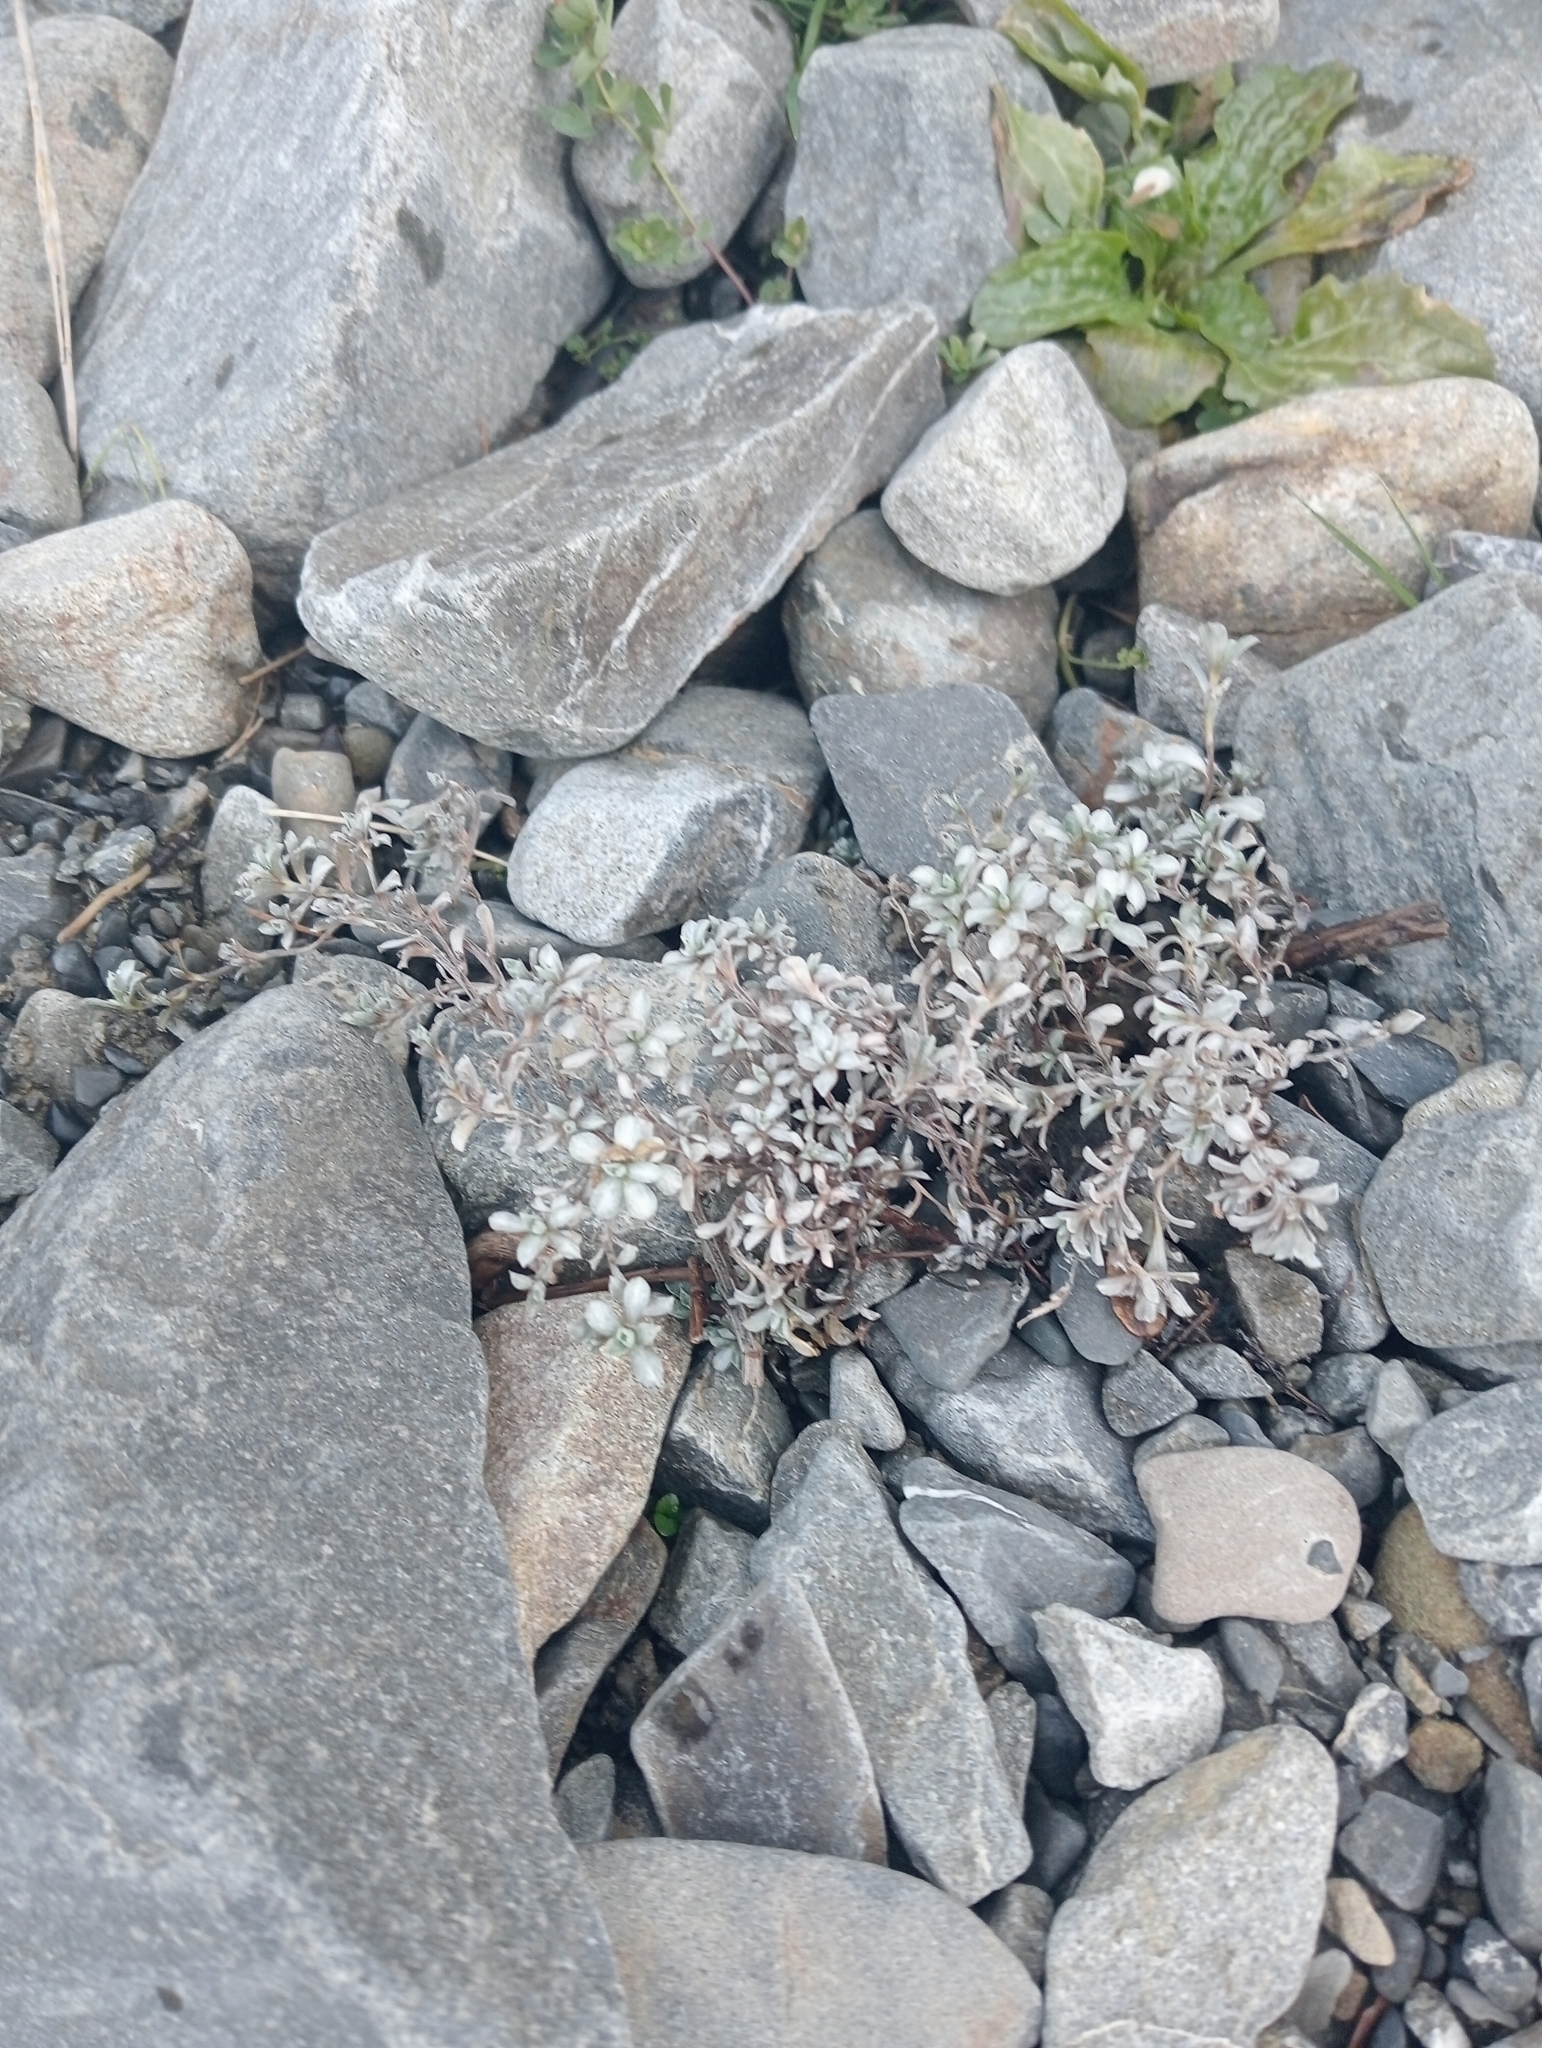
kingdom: Plantae
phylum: Tracheophyta
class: Magnoliopsida
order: Asterales
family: Asteraceae
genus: Raoulia
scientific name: Raoulia hookeri
